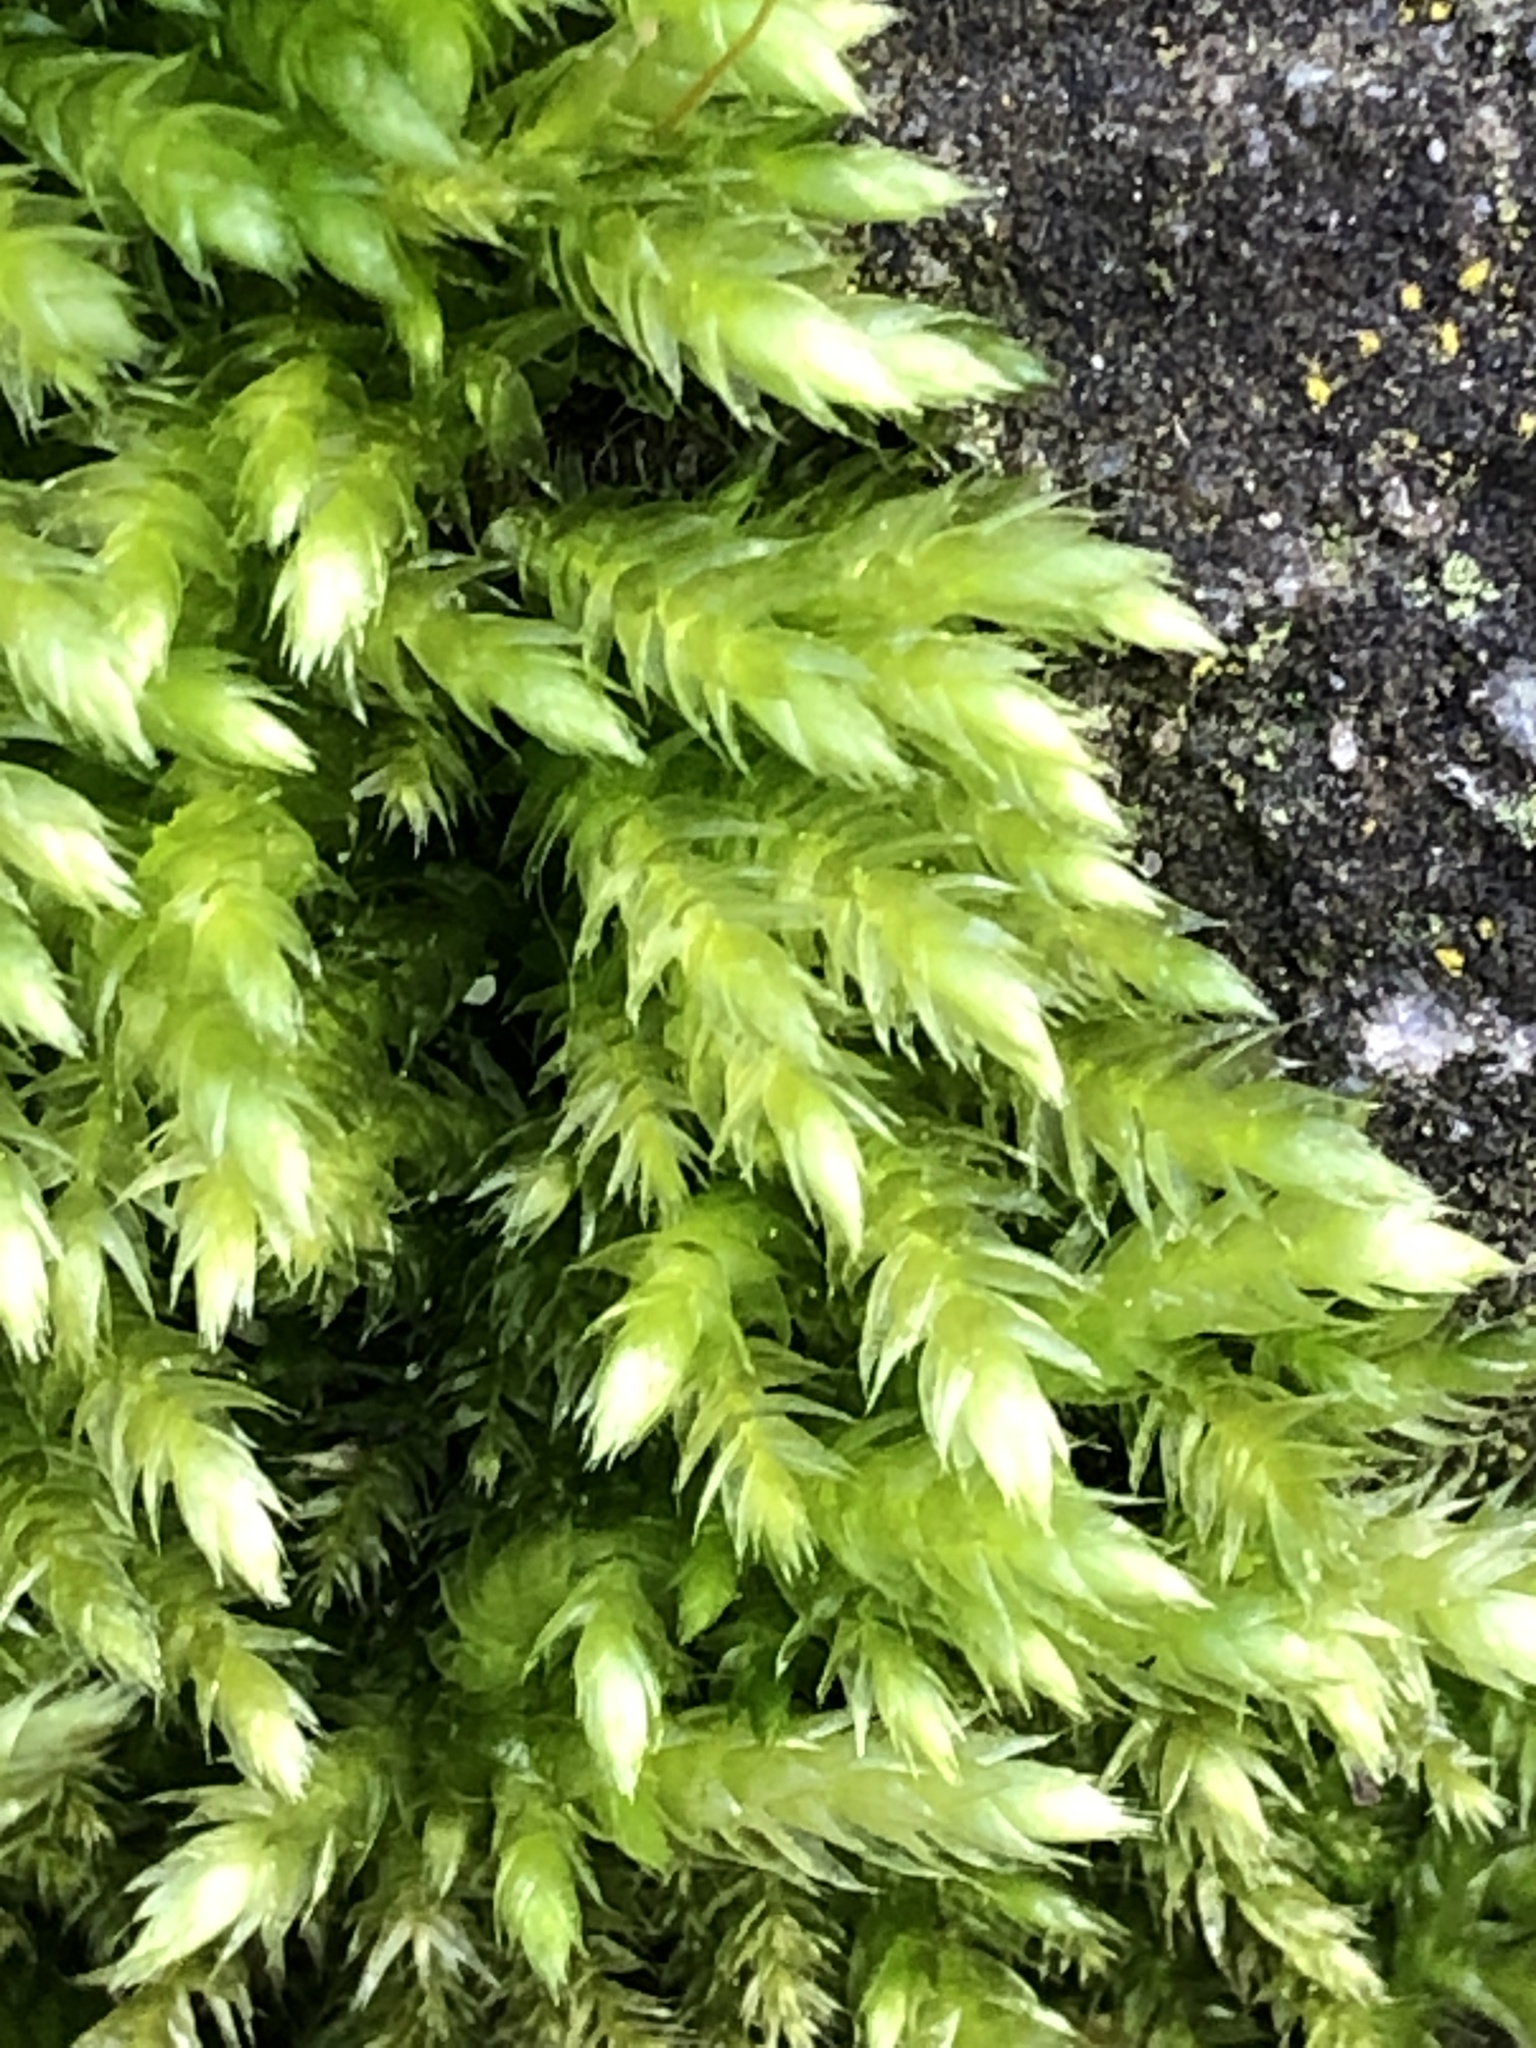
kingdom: Plantae
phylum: Bryophyta
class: Bryopsida
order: Hypnales
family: Hypnaceae
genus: Hypnum
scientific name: Hypnum cupressiforme
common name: Cypress-leaved plait-moss
